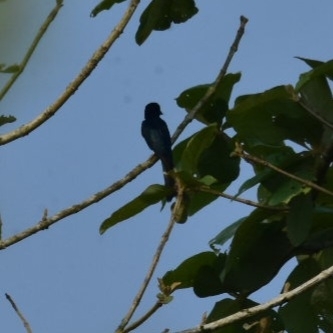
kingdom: Animalia
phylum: Chordata
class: Aves
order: Passeriformes
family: Dicruridae
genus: Dicrurus
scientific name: Dicrurus aeneus
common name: Bronzed drongo
